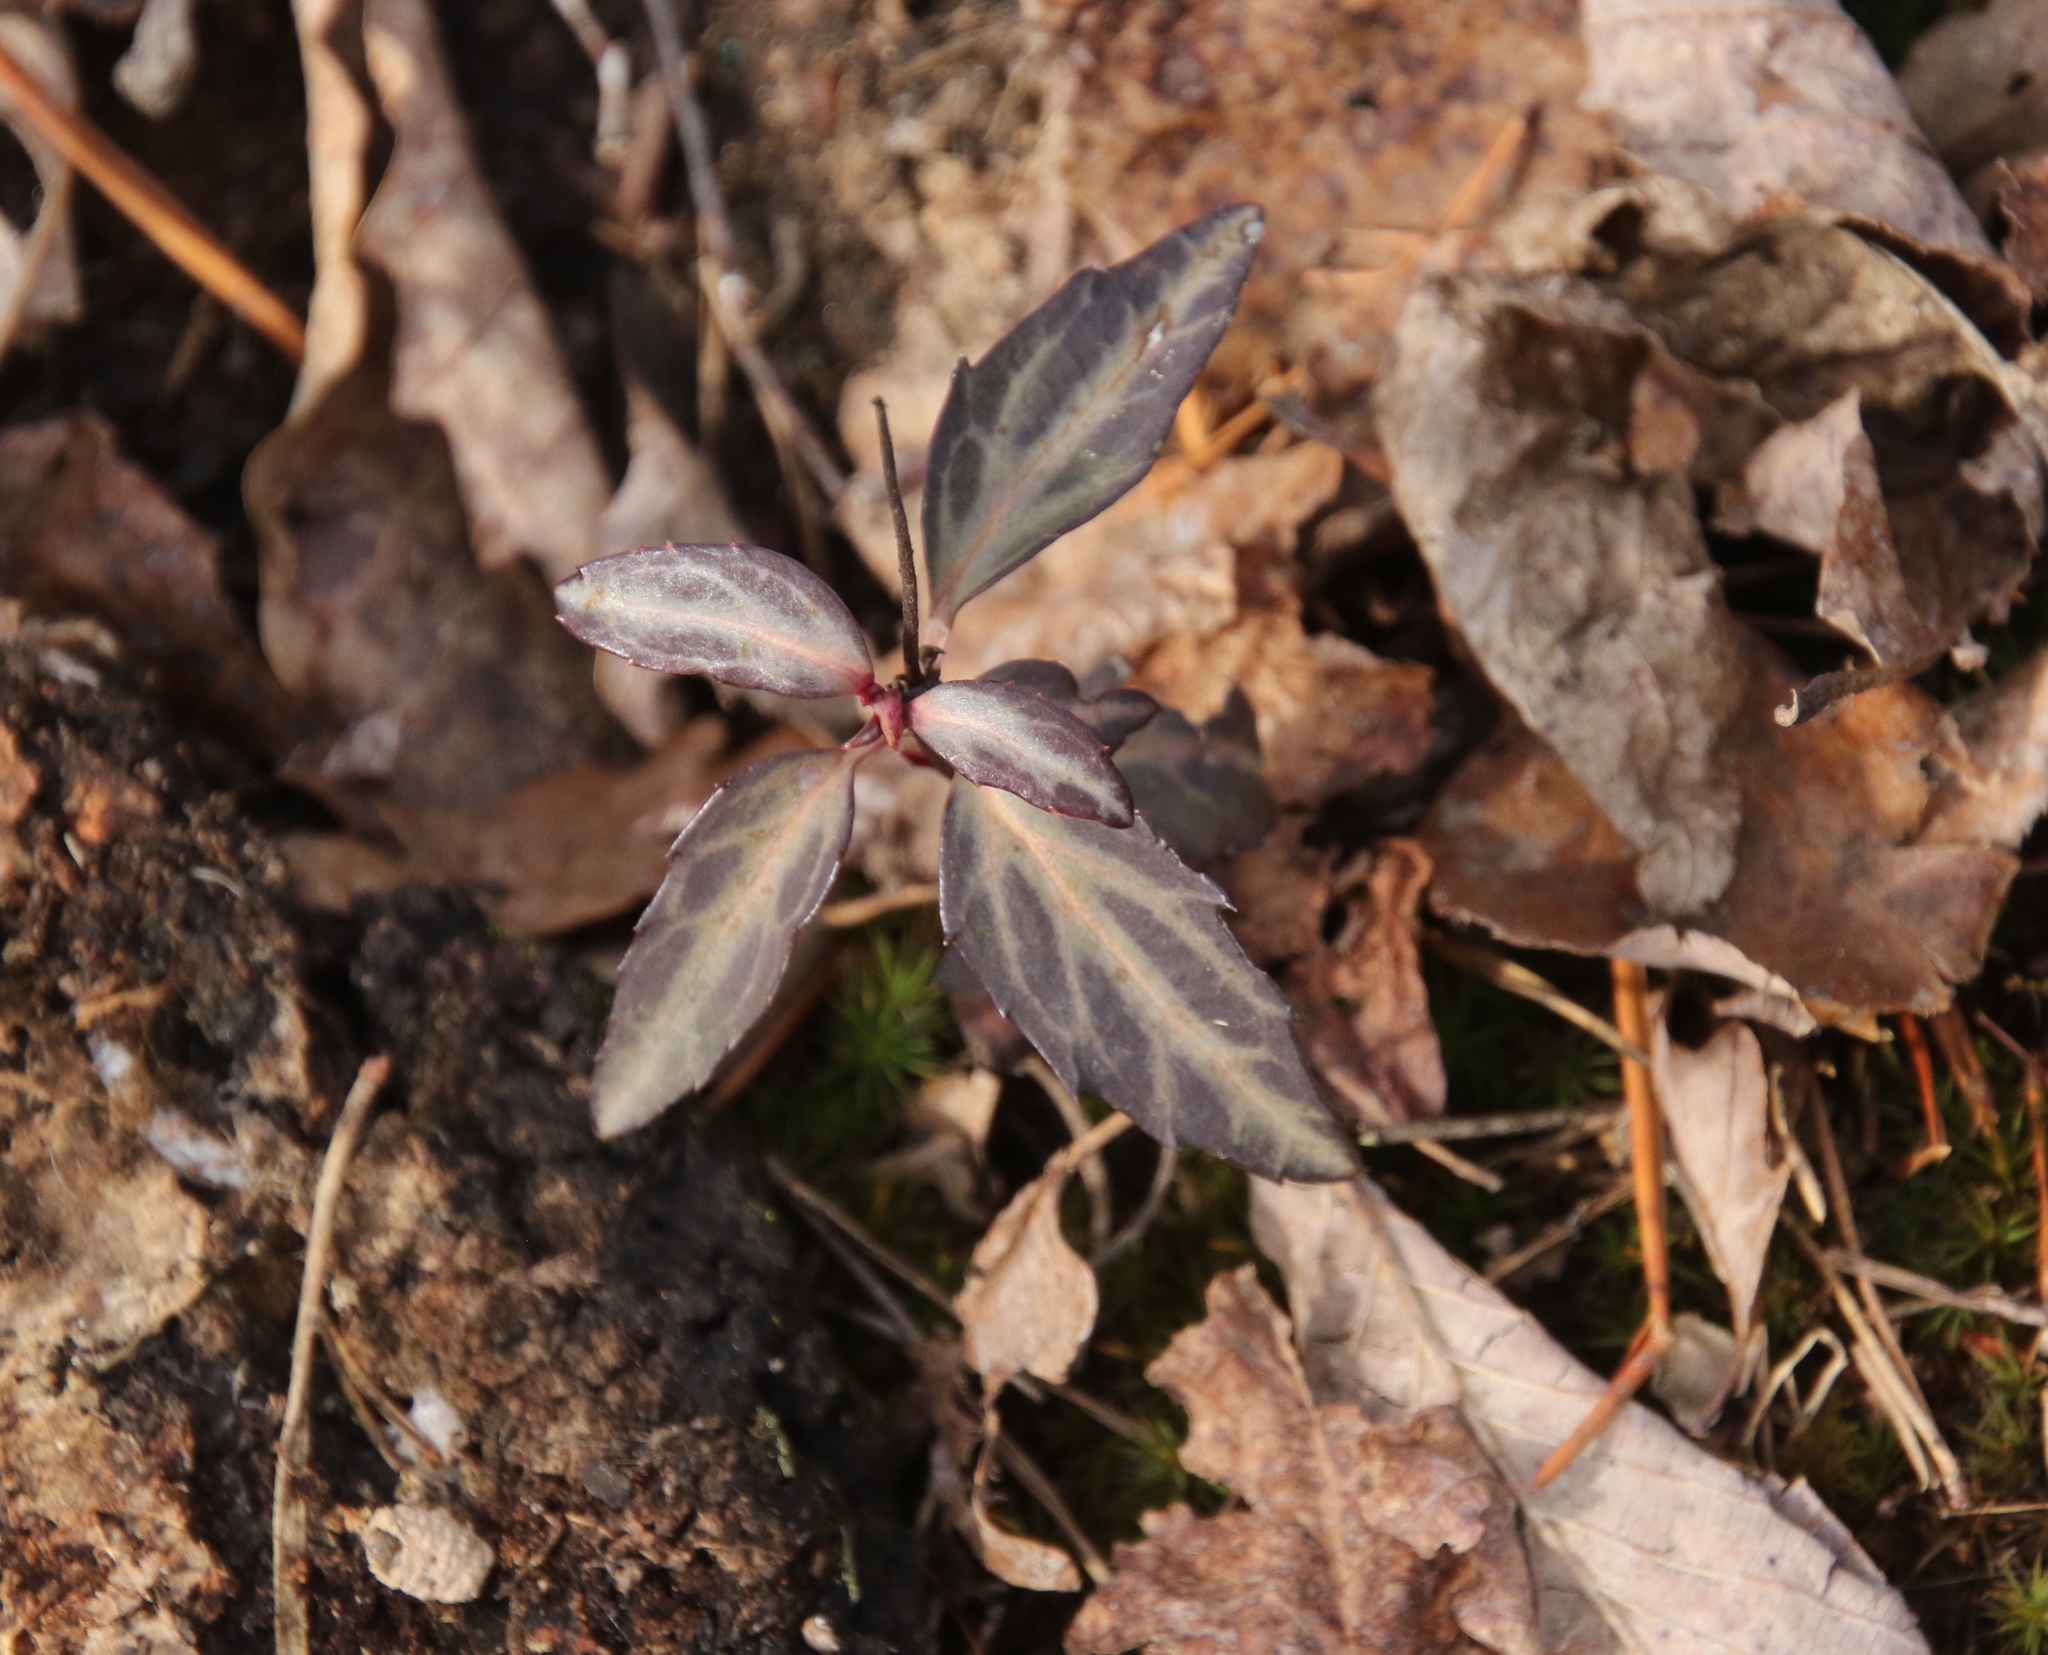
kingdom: Plantae
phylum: Tracheophyta
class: Magnoliopsida
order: Ericales
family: Ericaceae
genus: Chimaphila
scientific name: Chimaphila maculata
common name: Spotted pipsissewa
